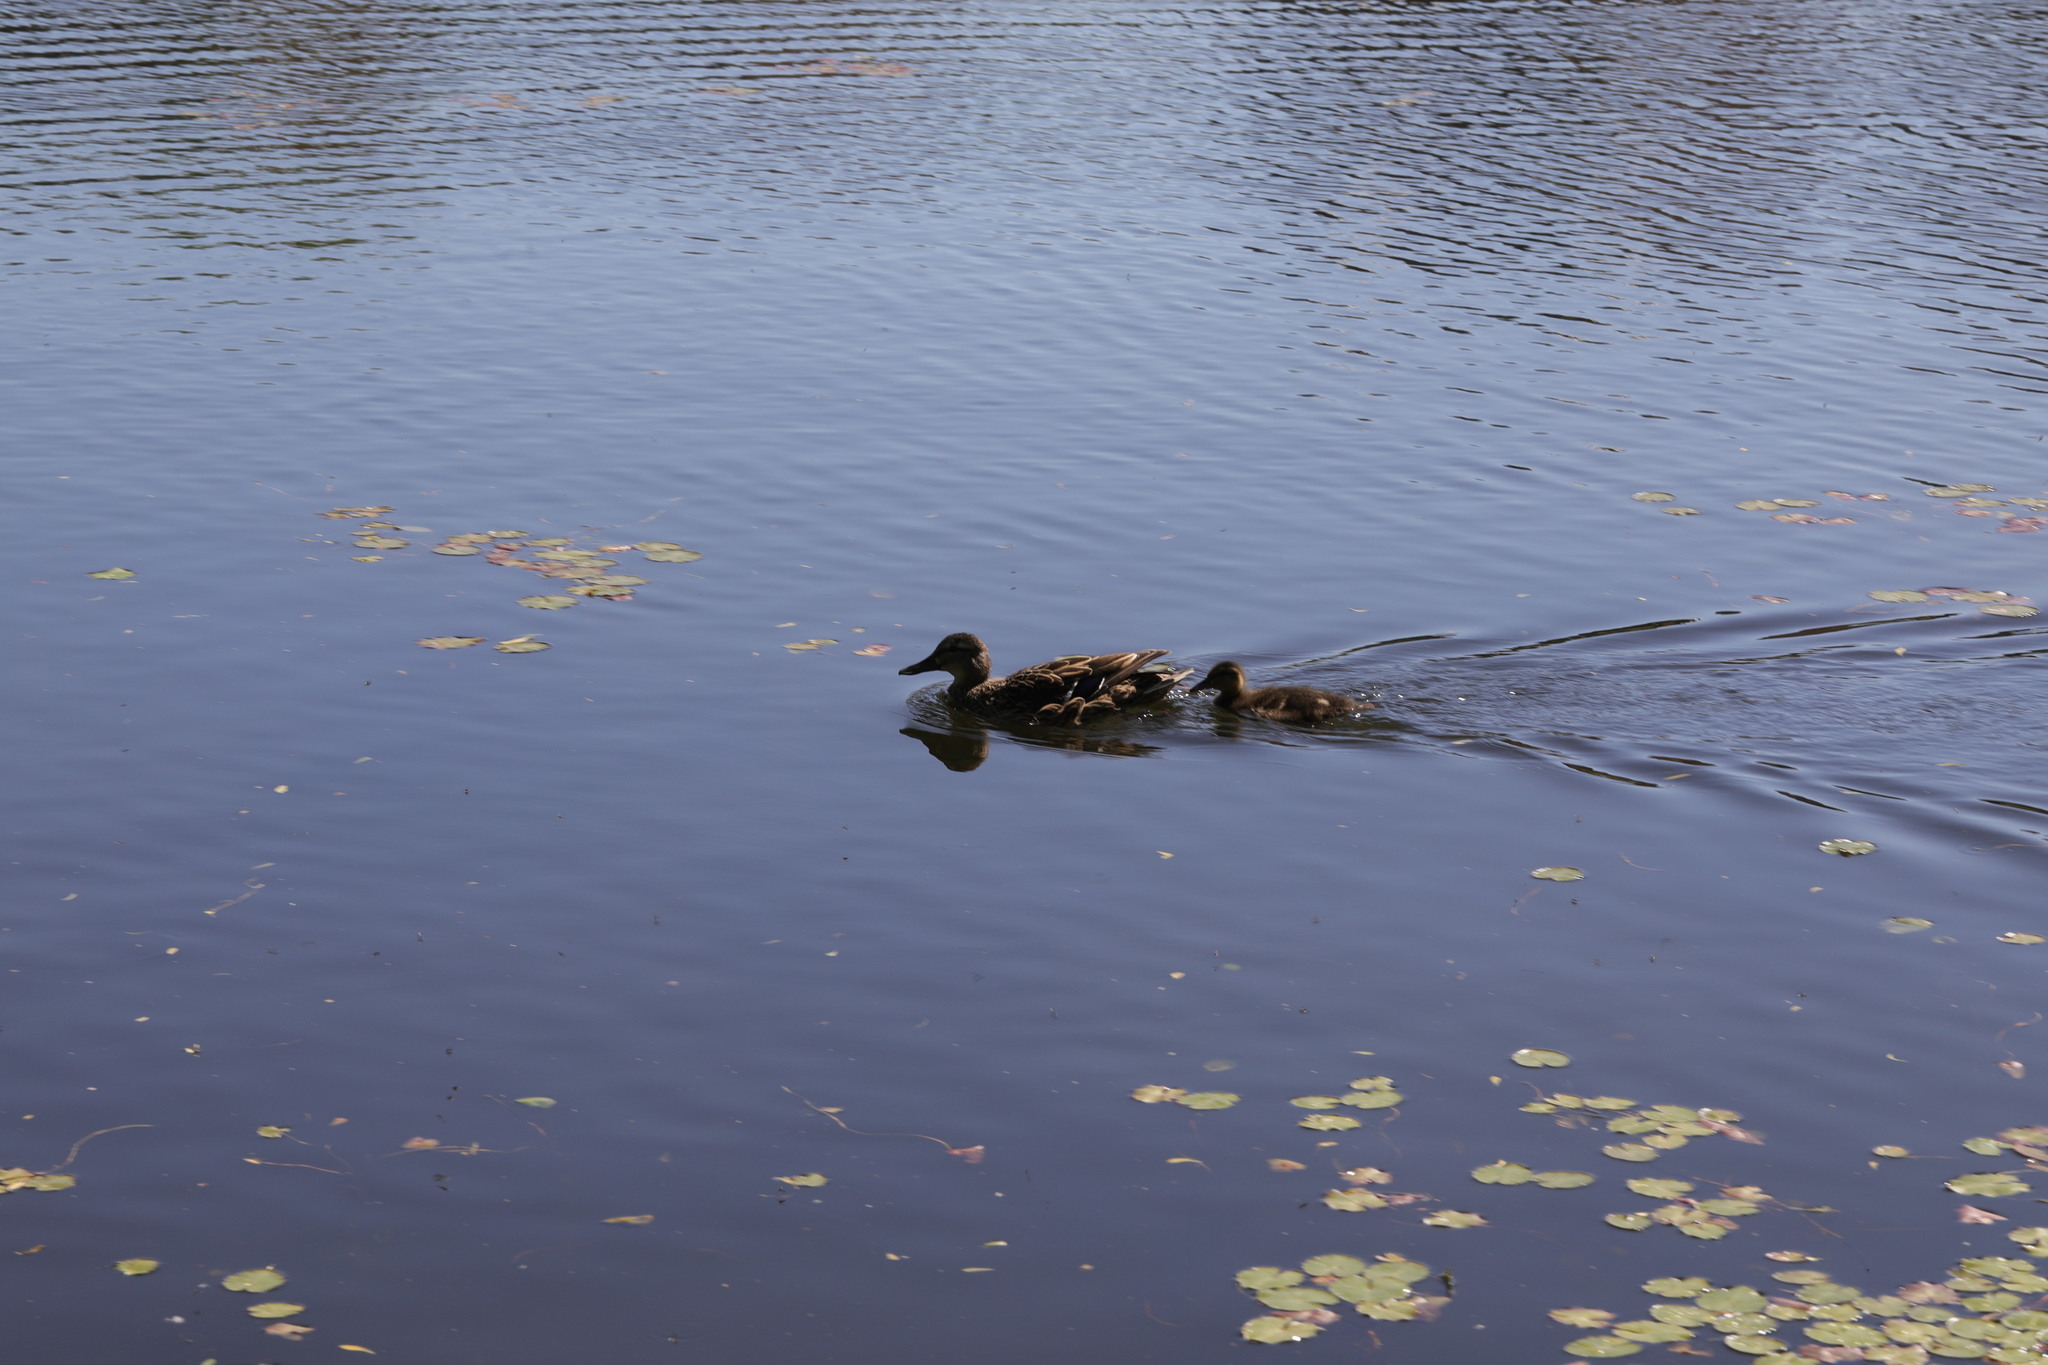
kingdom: Animalia
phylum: Chordata
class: Aves
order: Anseriformes
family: Anatidae
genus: Anas
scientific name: Anas platyrhynchos
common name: Mallard
